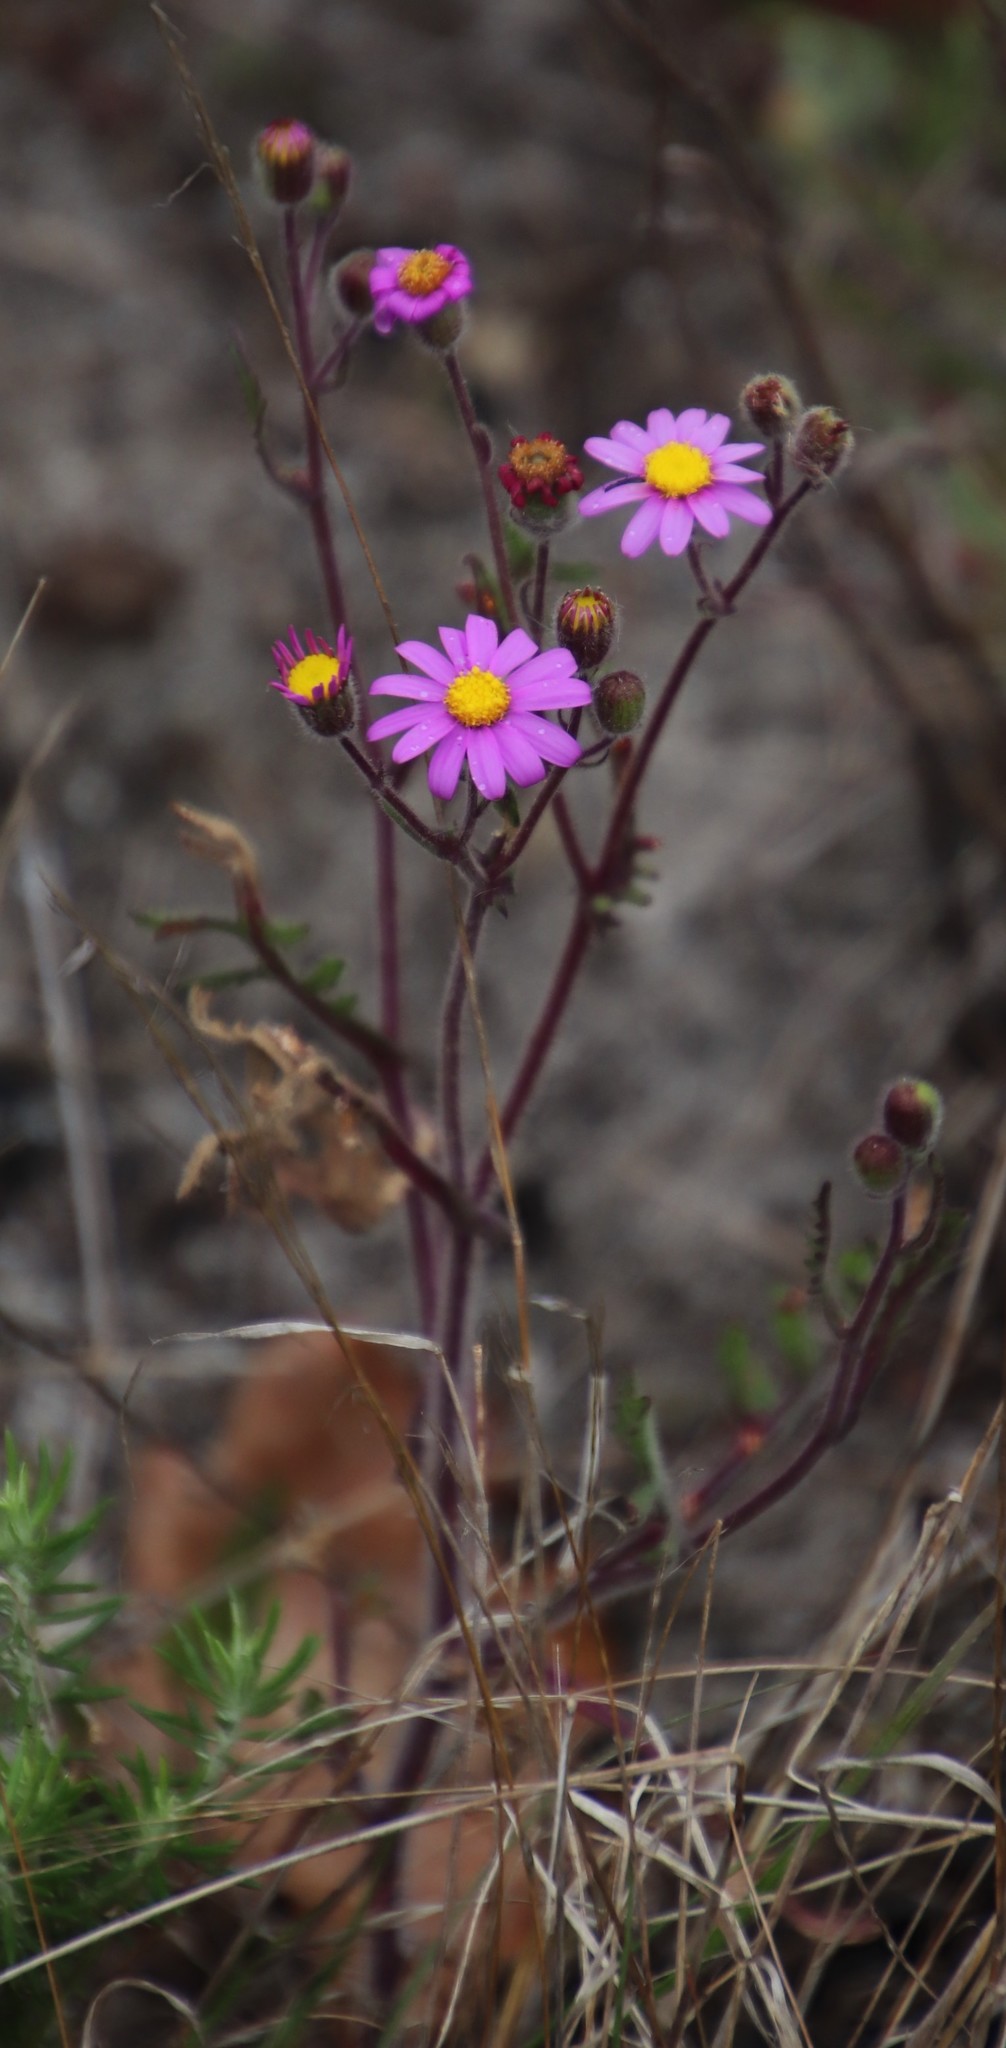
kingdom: Plantae
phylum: Tracheophyta
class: Magnoliopsida
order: Asterales
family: Asteraceae
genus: Senecio
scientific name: Senecio arenarius
